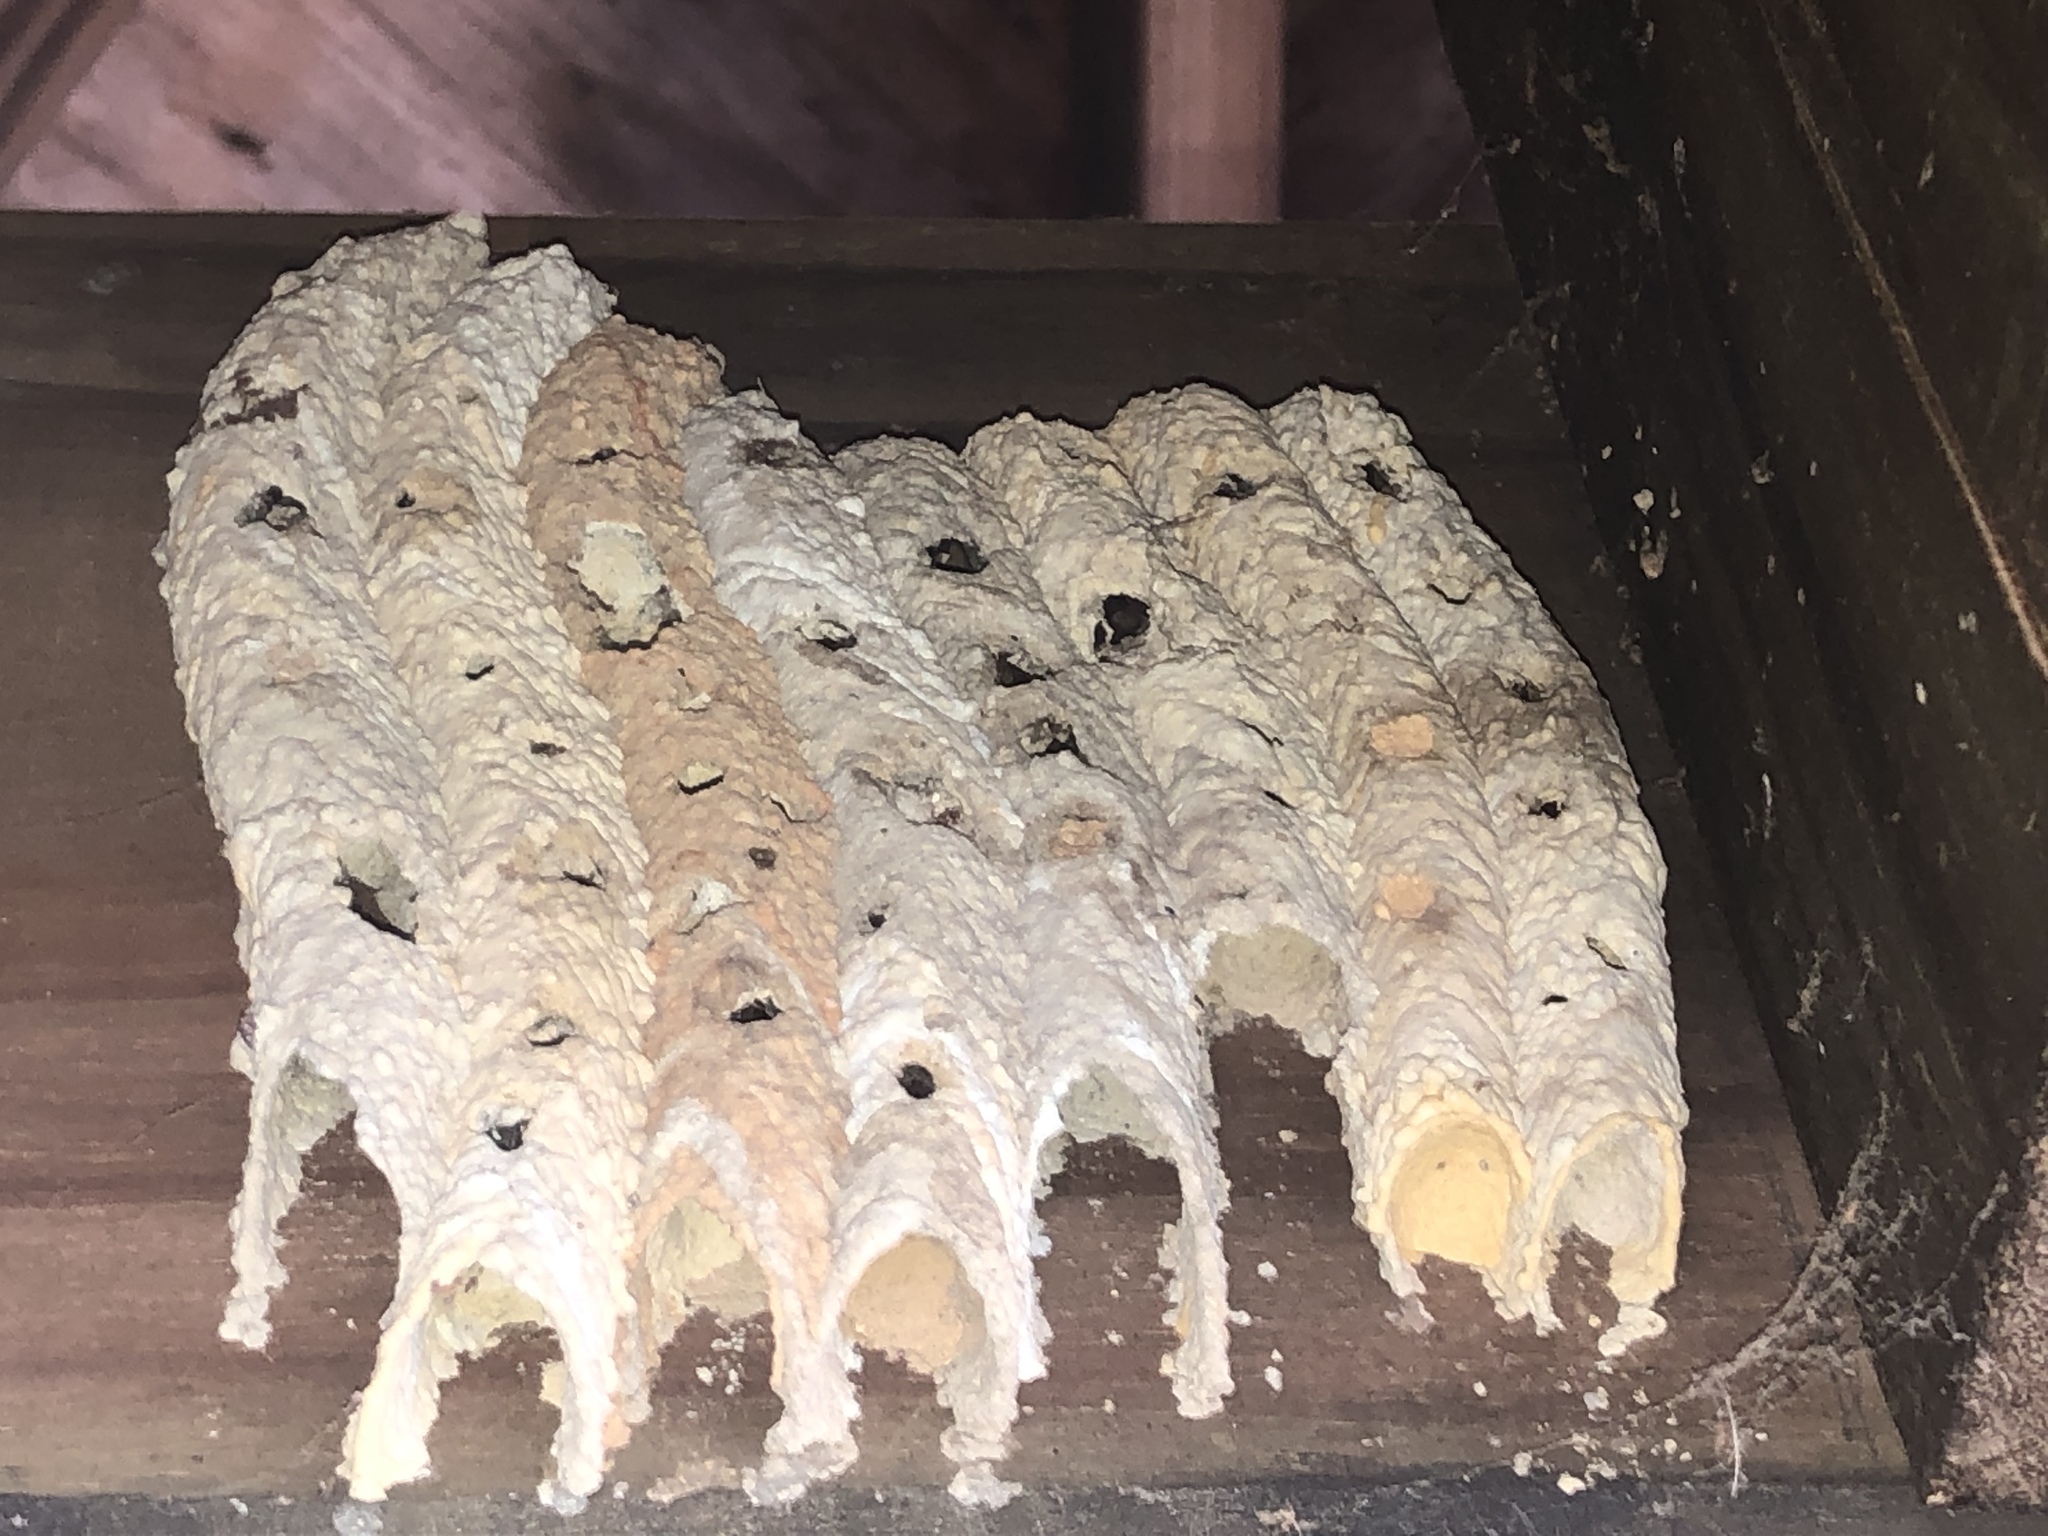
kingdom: Animalia
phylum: Arthropoda
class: Insecta
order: Hymenoptera
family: Crabronidae
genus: Trypoxylon
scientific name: Trypoxylon politum
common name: Organ-pipe mud-dauber wasp
